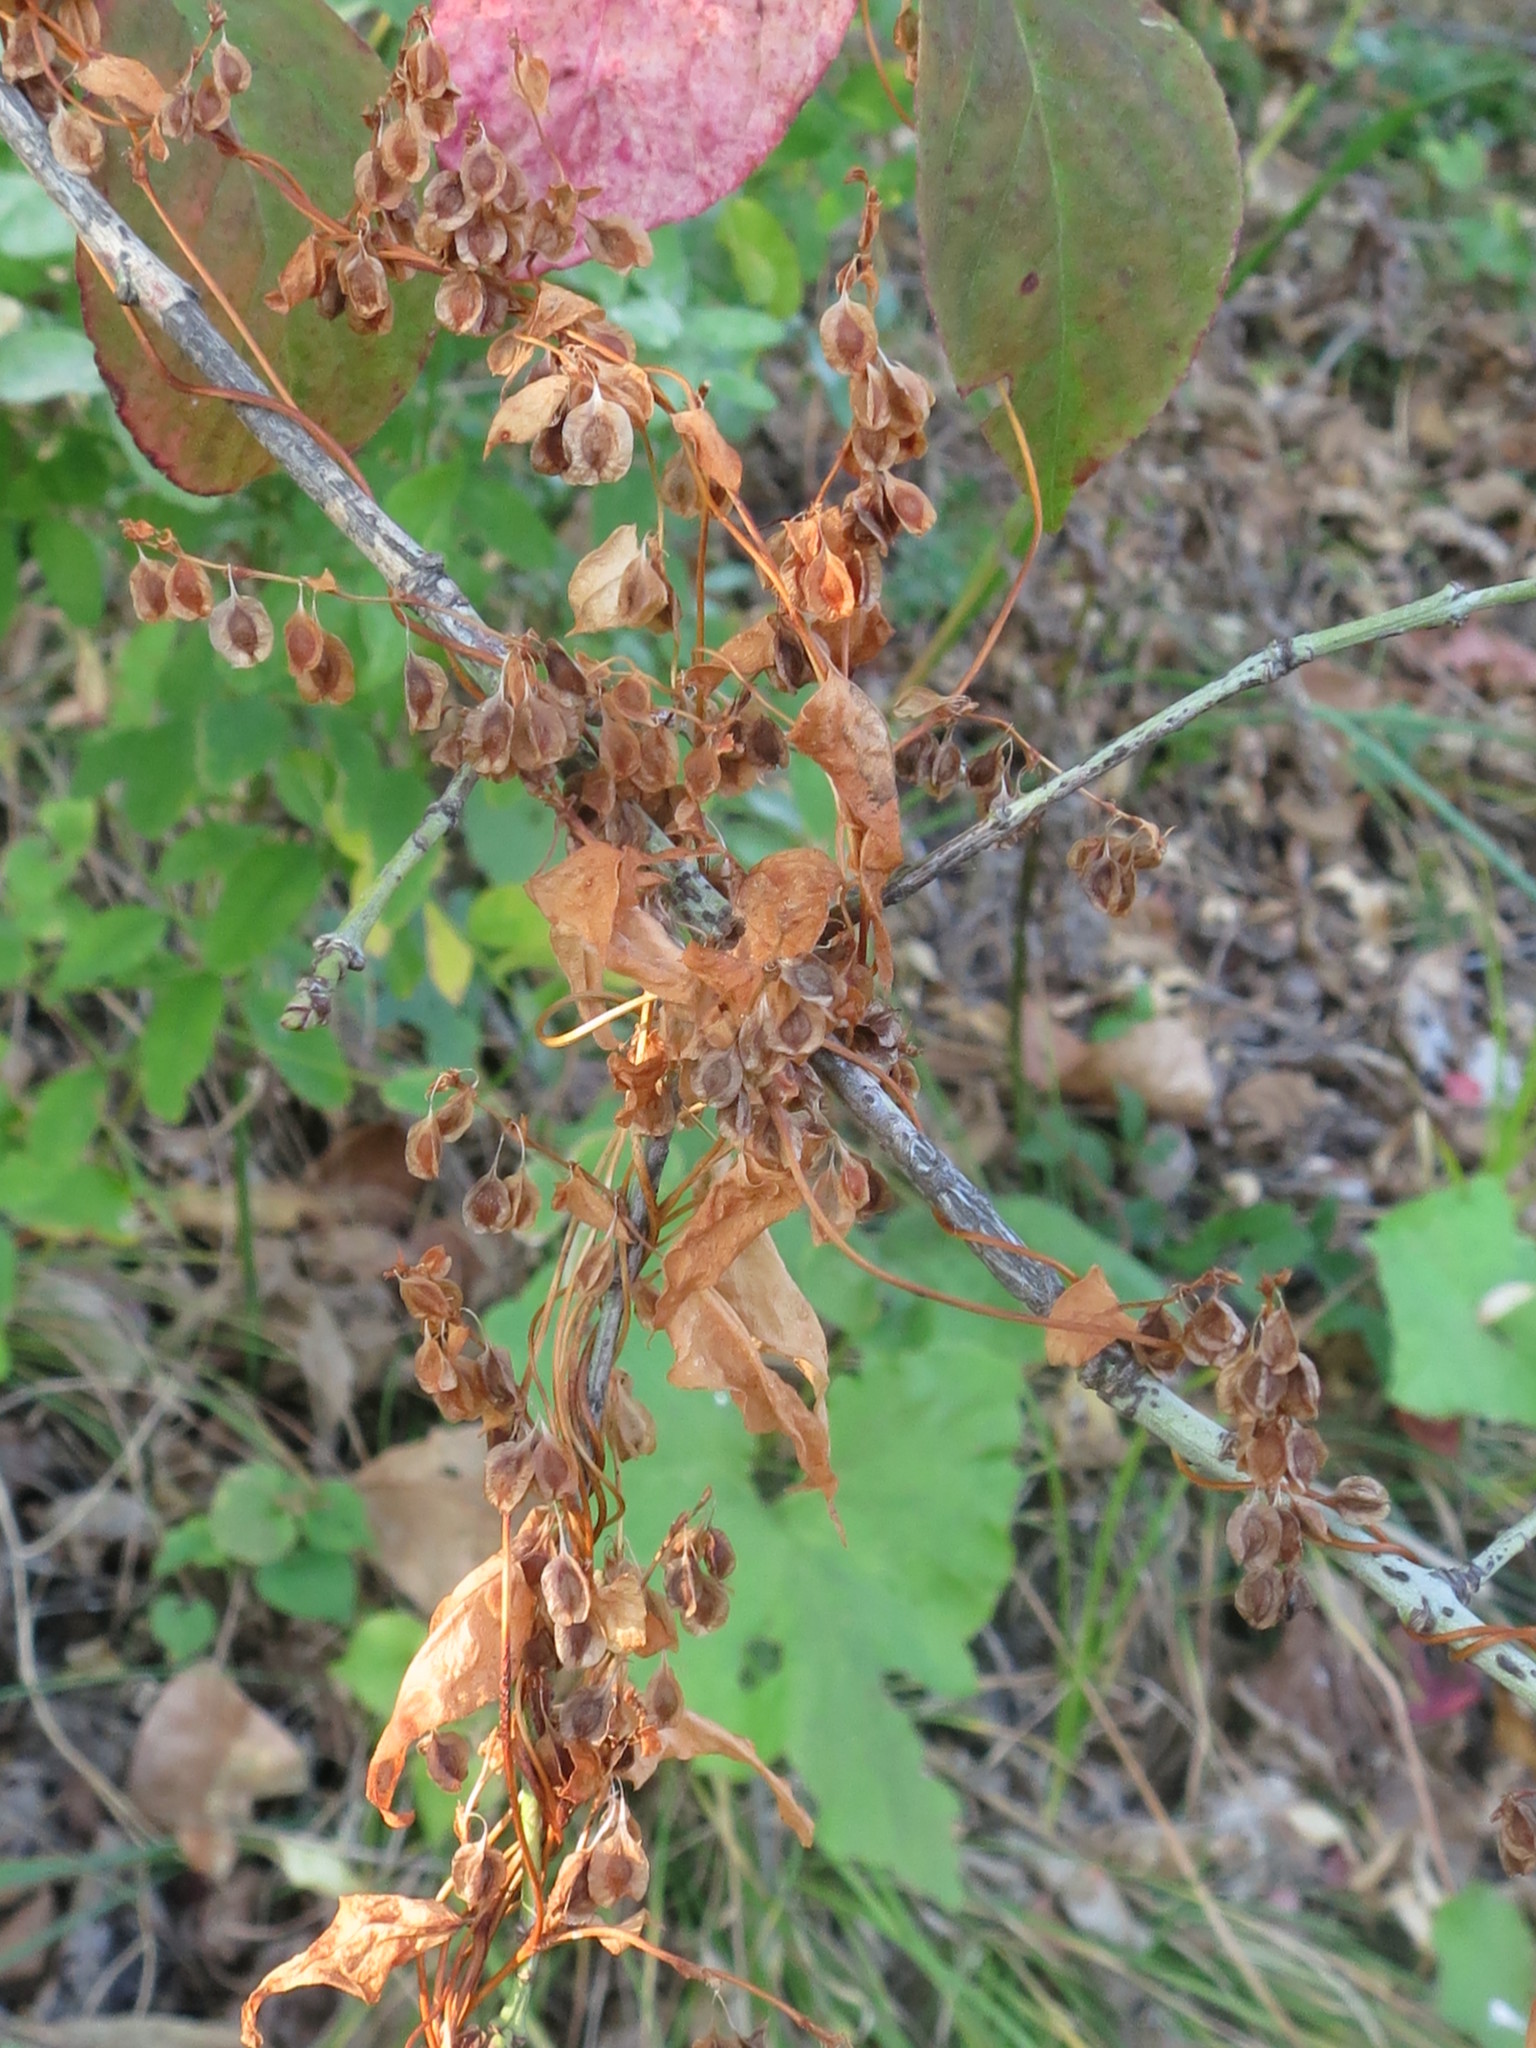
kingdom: Plantae
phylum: Tracheophyta
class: Magnoliopsida
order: Caryophyllales
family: Polygonaceae
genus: Fallopia
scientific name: Fallopia dumetorum
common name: Copse-bindweed
